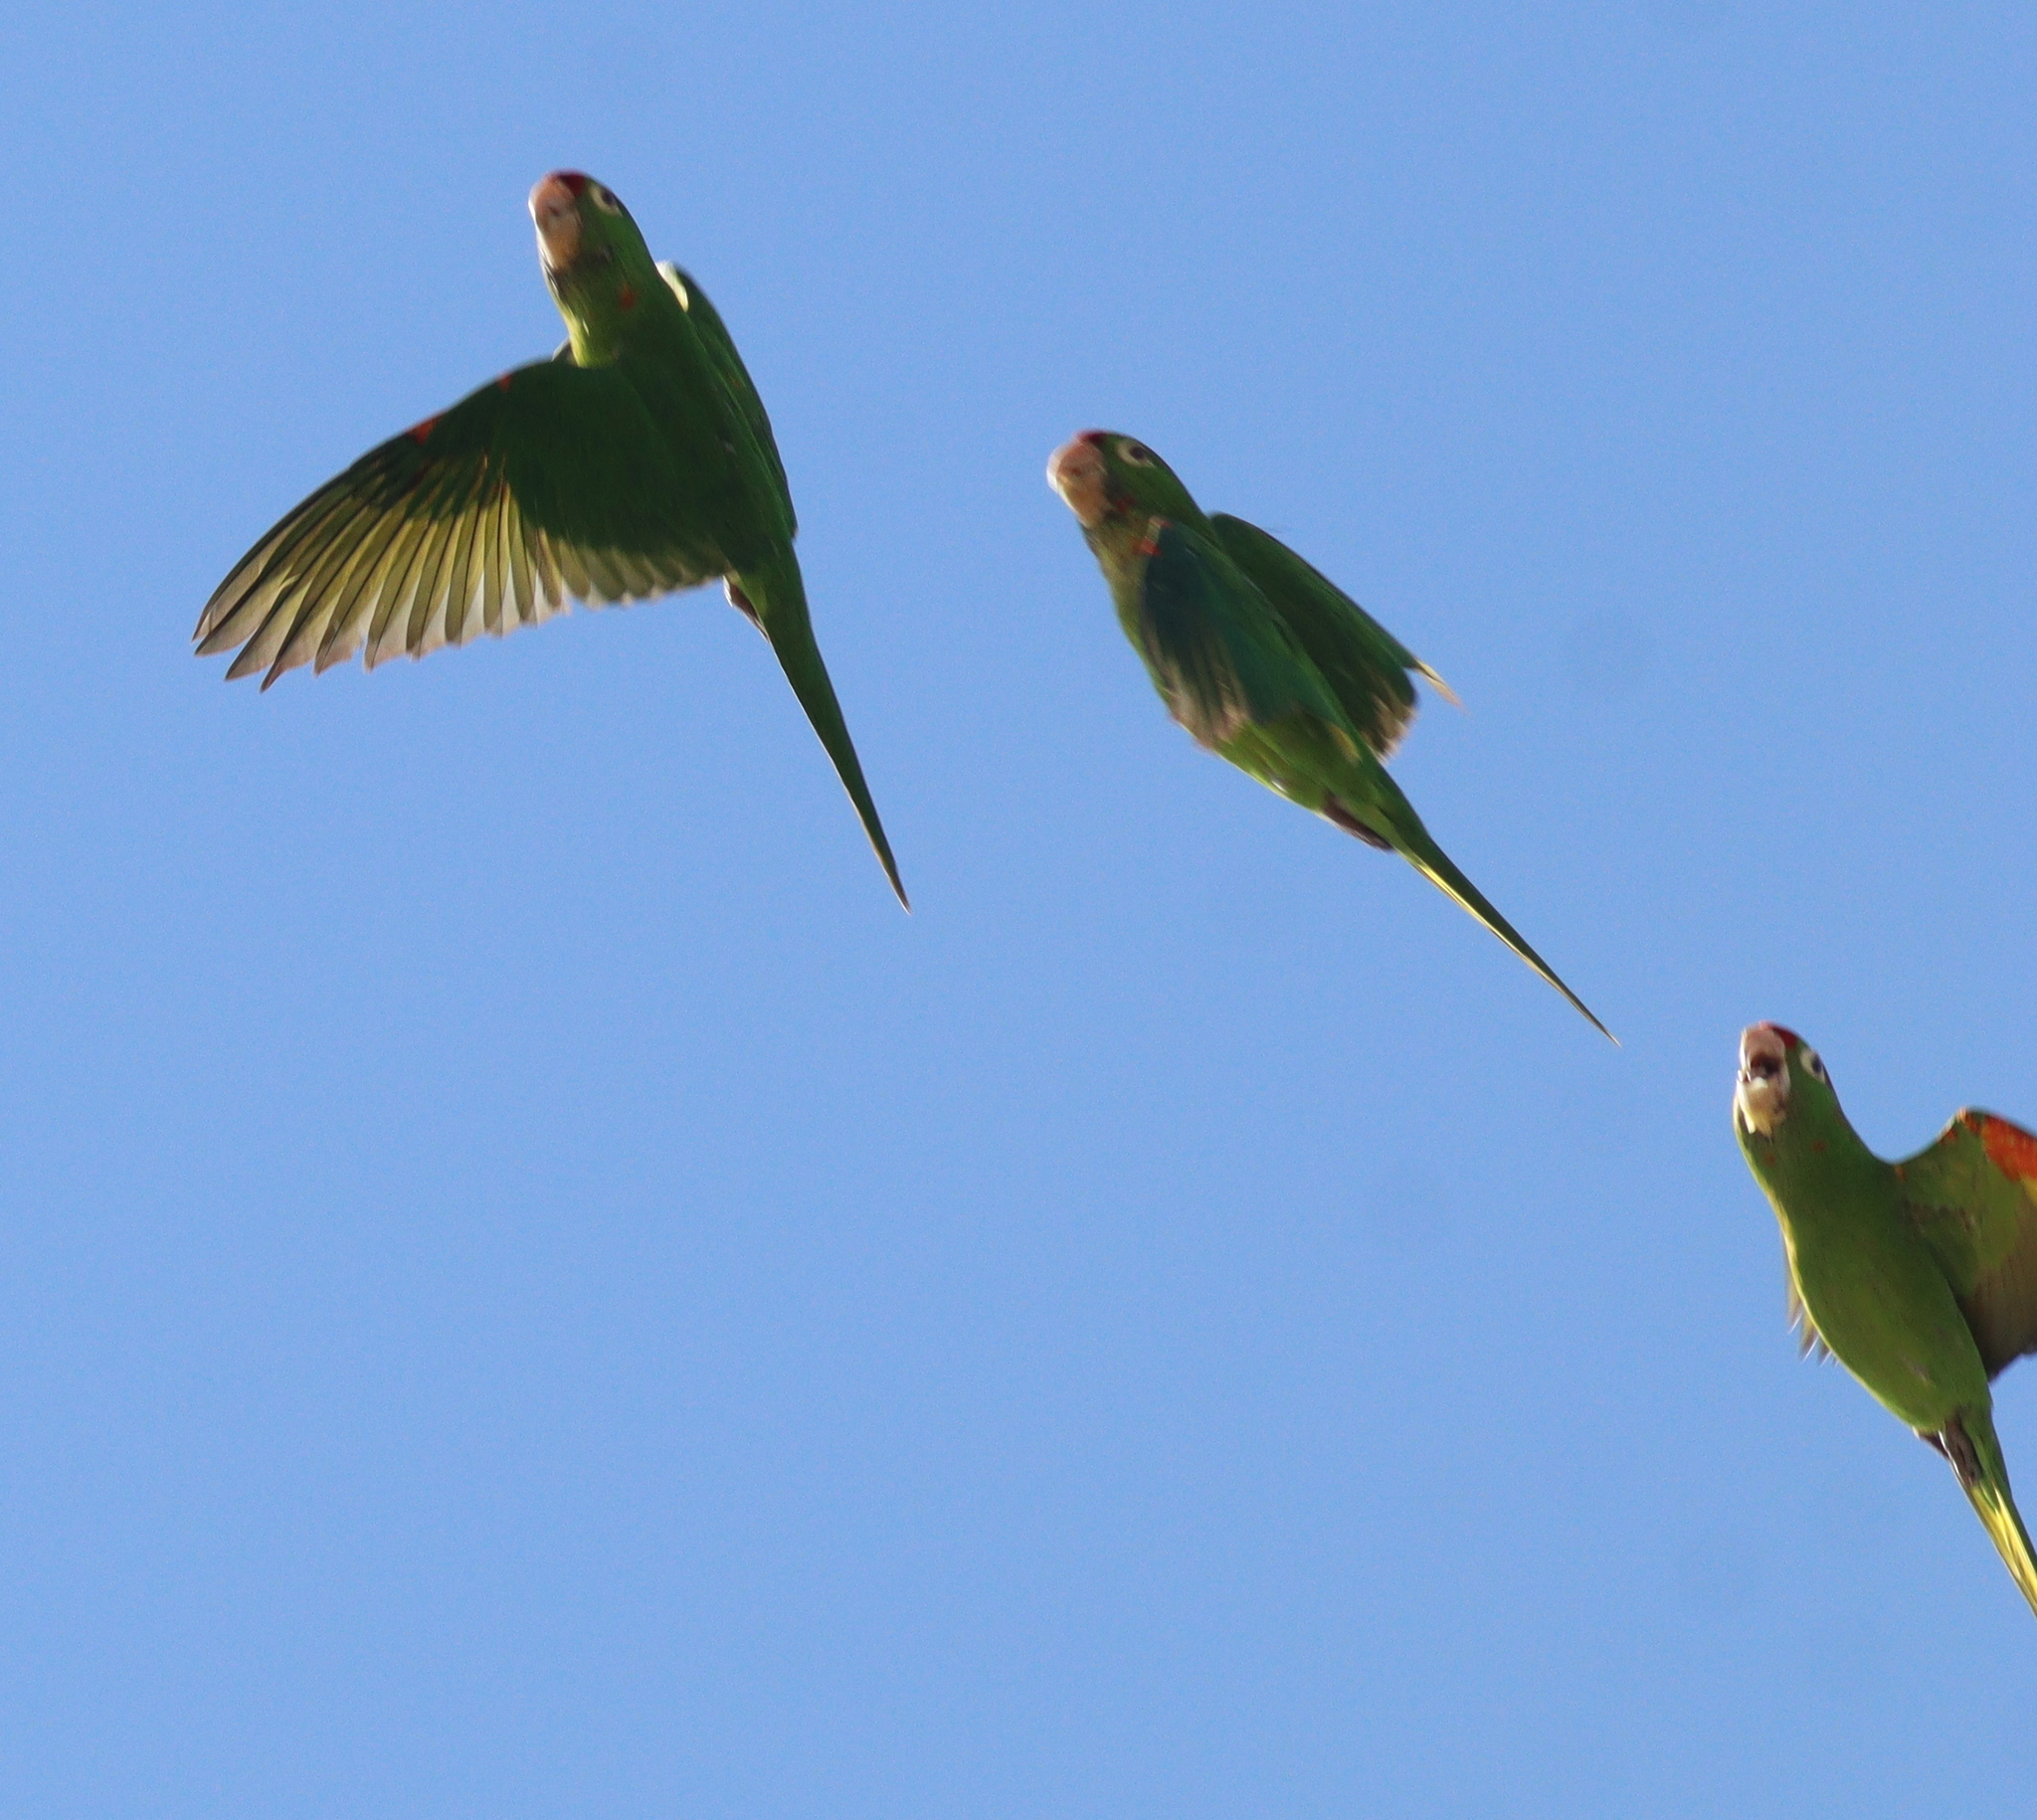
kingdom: Animalia
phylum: Chordata
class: Aves
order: Psittaciformes
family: Psittacidae
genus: Aratinga
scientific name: Aratinga finschi
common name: Crimson-fronted parakeet
